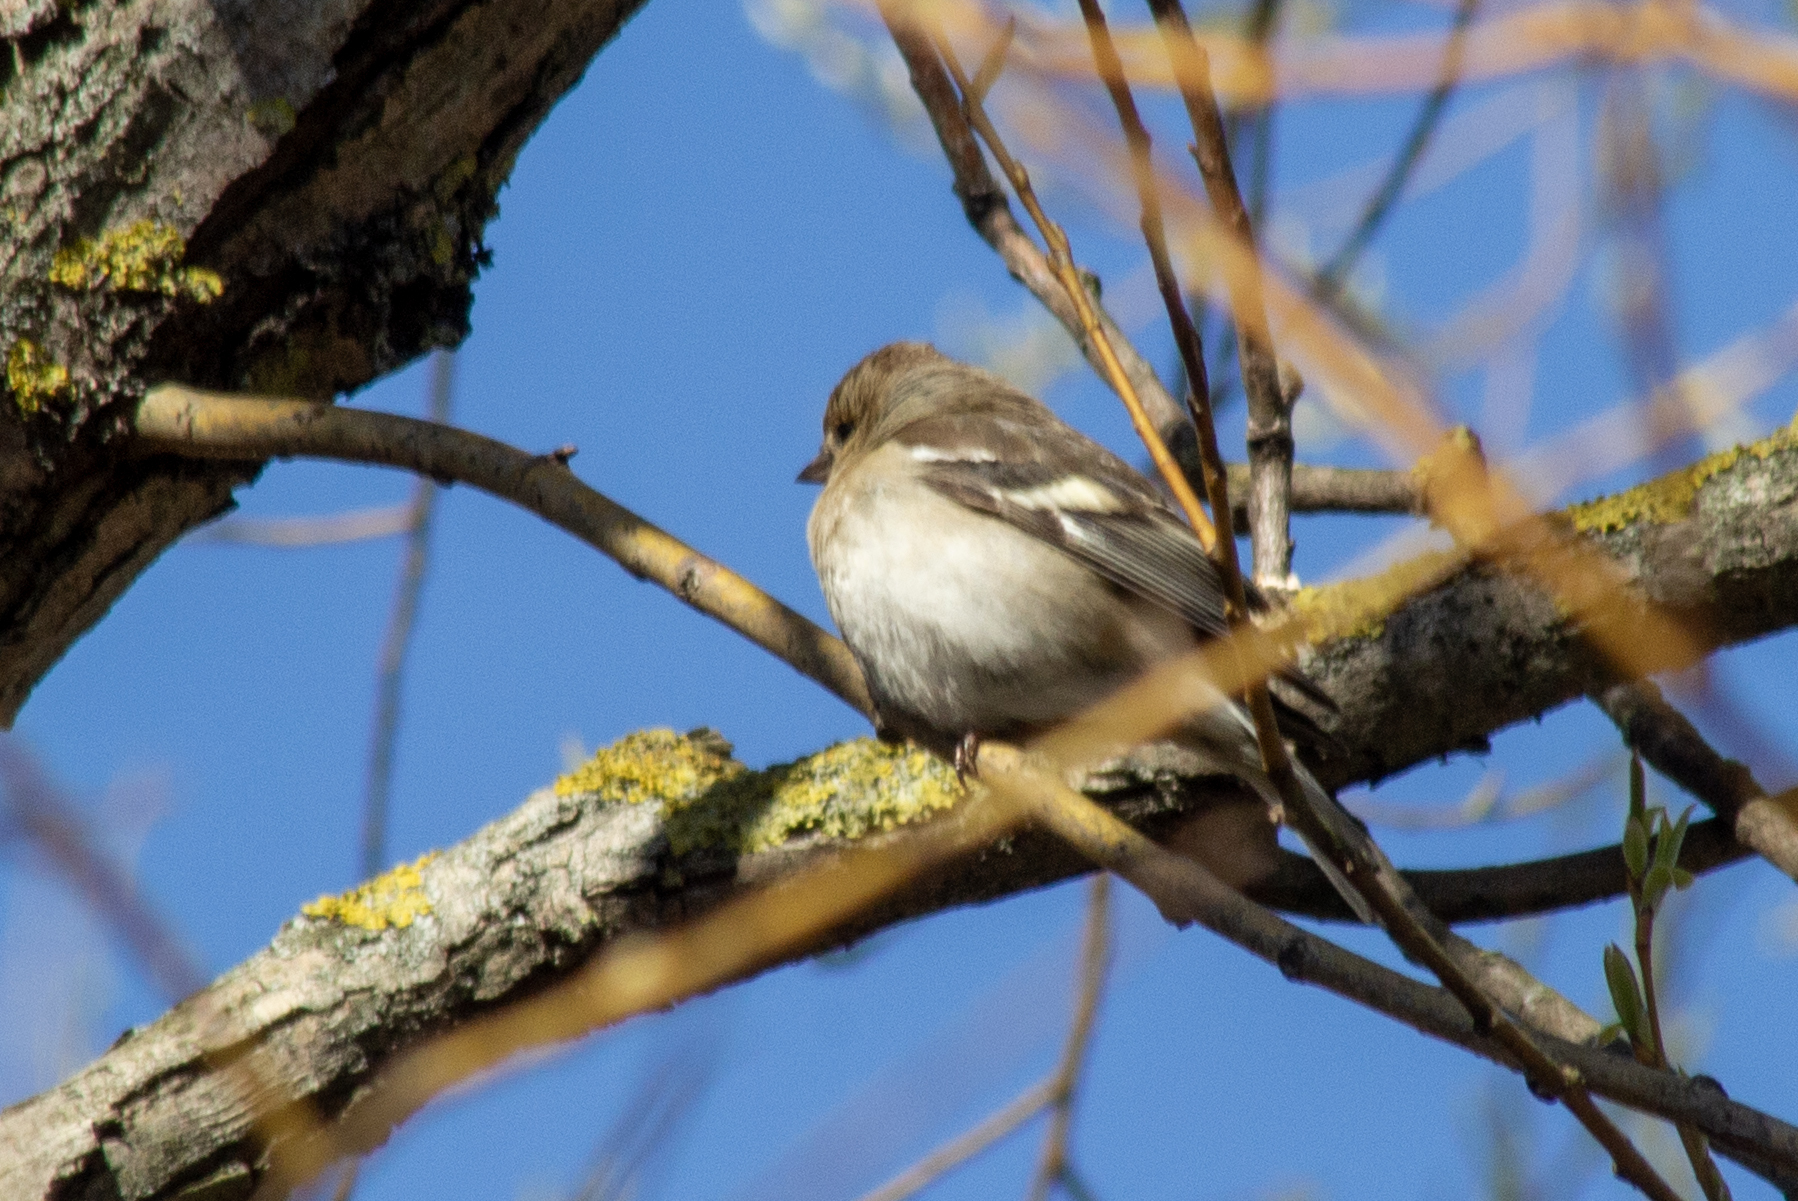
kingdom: Animalia
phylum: Chordata
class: Aves
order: Passeriformes
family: Fringillidae
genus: Fringilla
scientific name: Fringilla coelebs
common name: Common chaffinch
